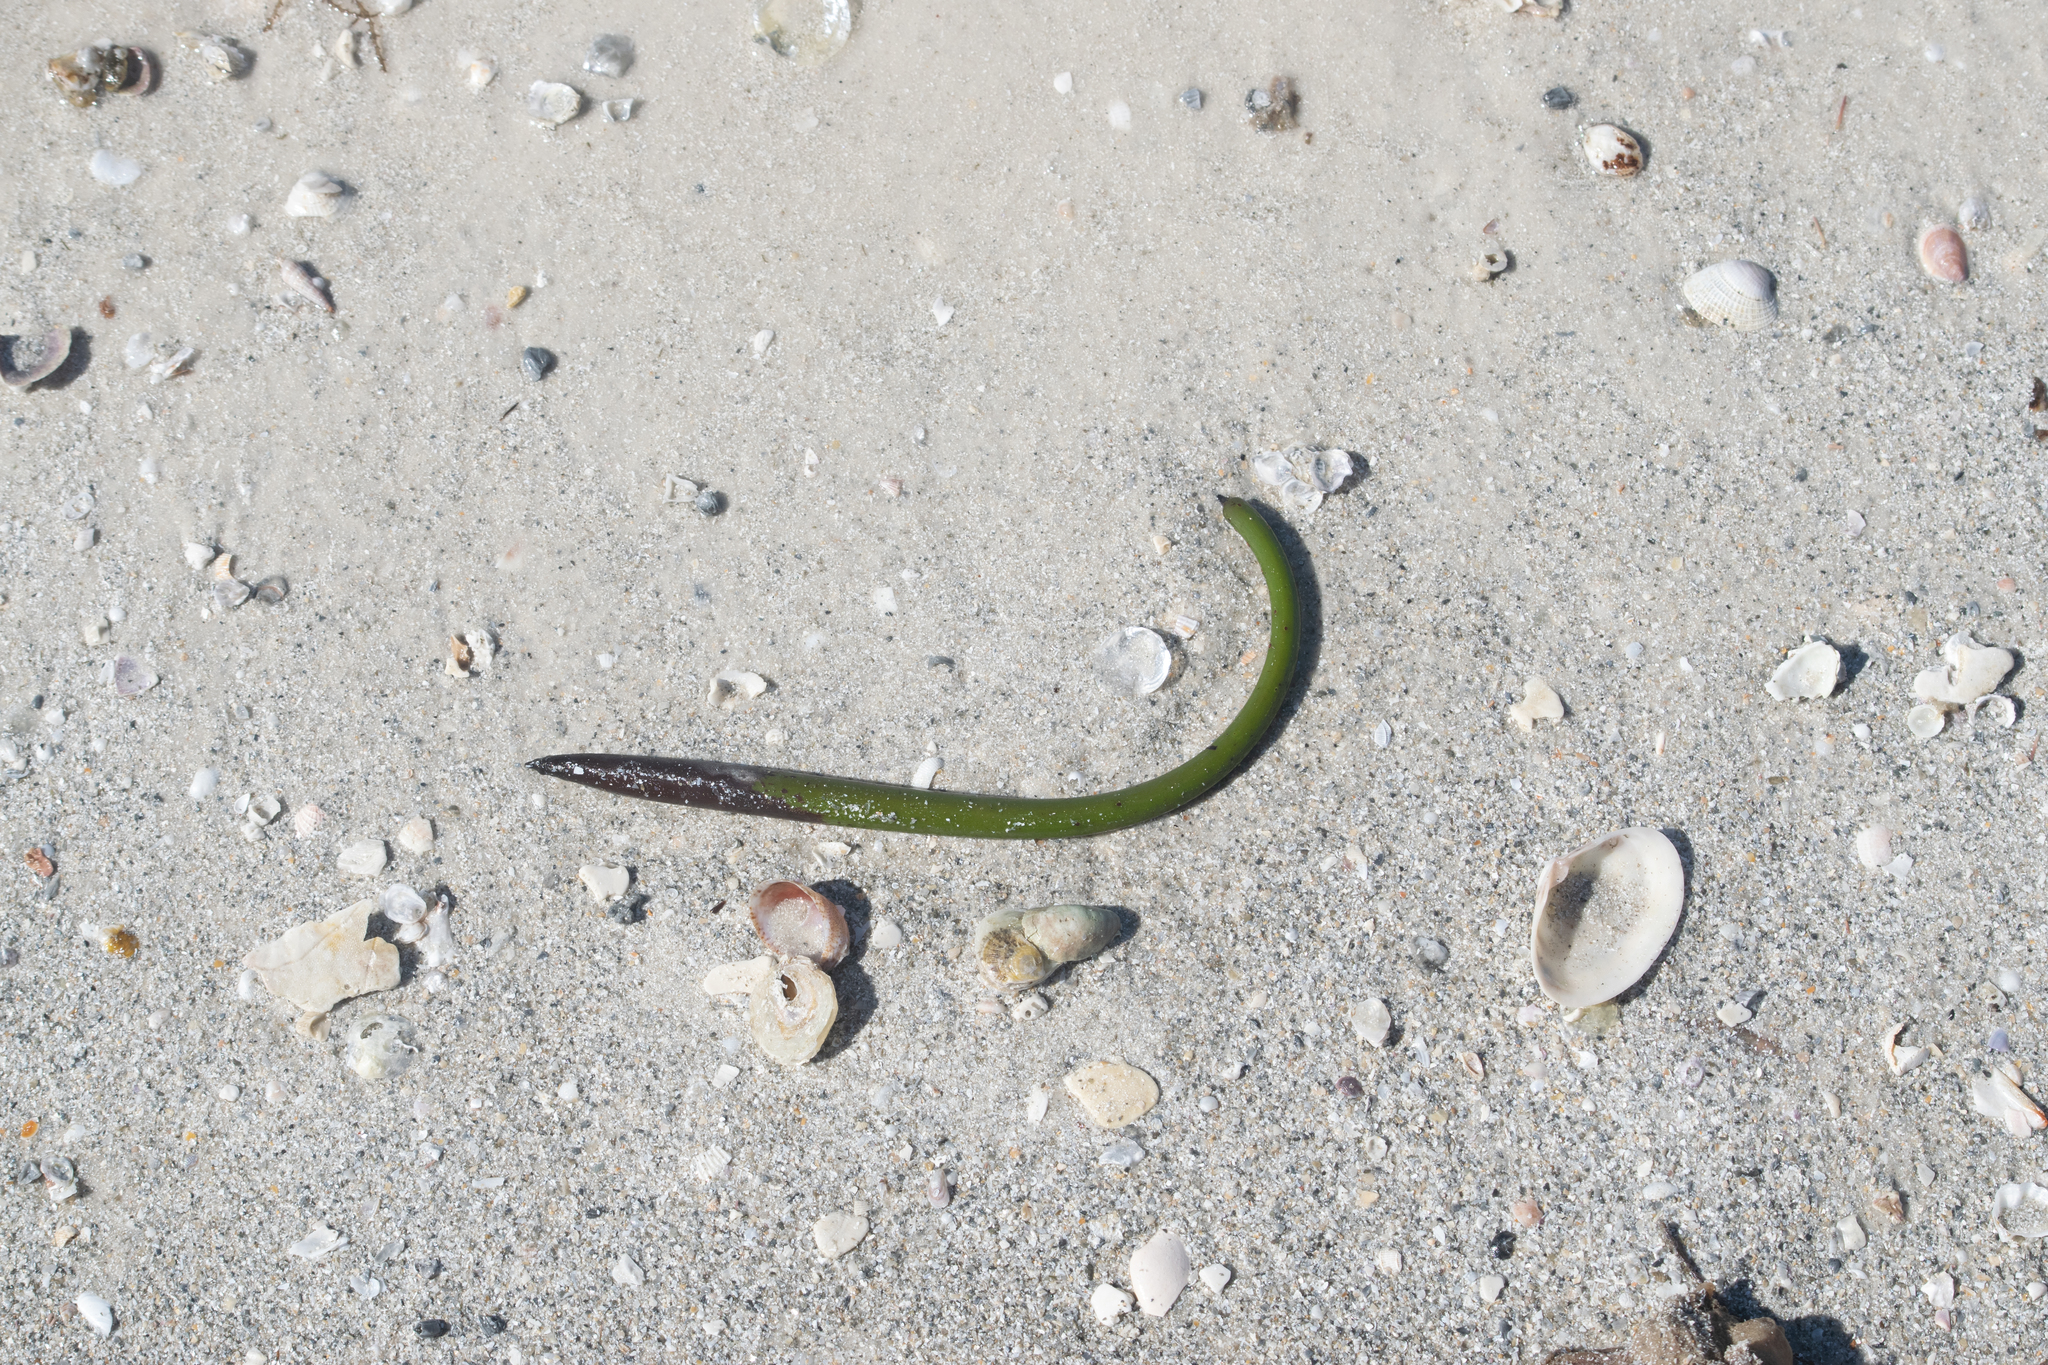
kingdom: Plantae
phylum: Tracheophyta
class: Magnoliopsida
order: Malpighiales
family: Rhizophoraceae
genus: Rhizophora
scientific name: Rhizophora mangle
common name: Red mangrove
